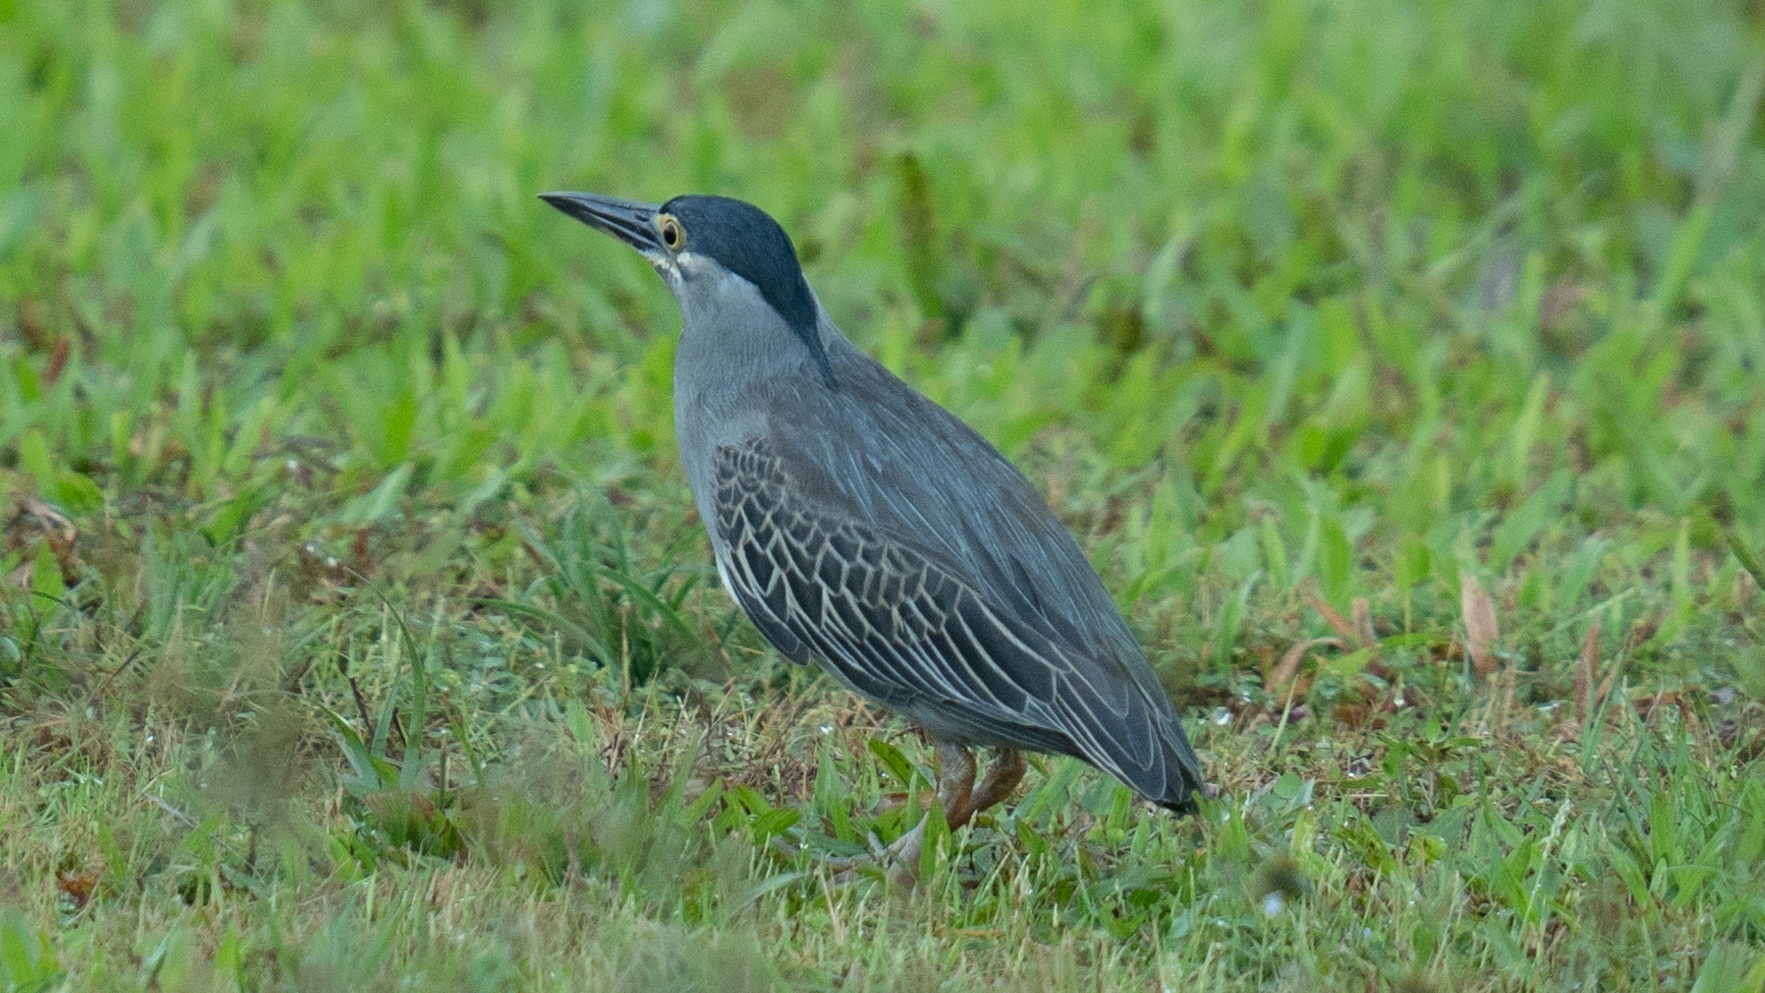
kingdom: Animalia
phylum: Chordata
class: Aves
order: Pelecaniformes
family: Ardeidae
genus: Butorides
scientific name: Butorides striata
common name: Striated heron
